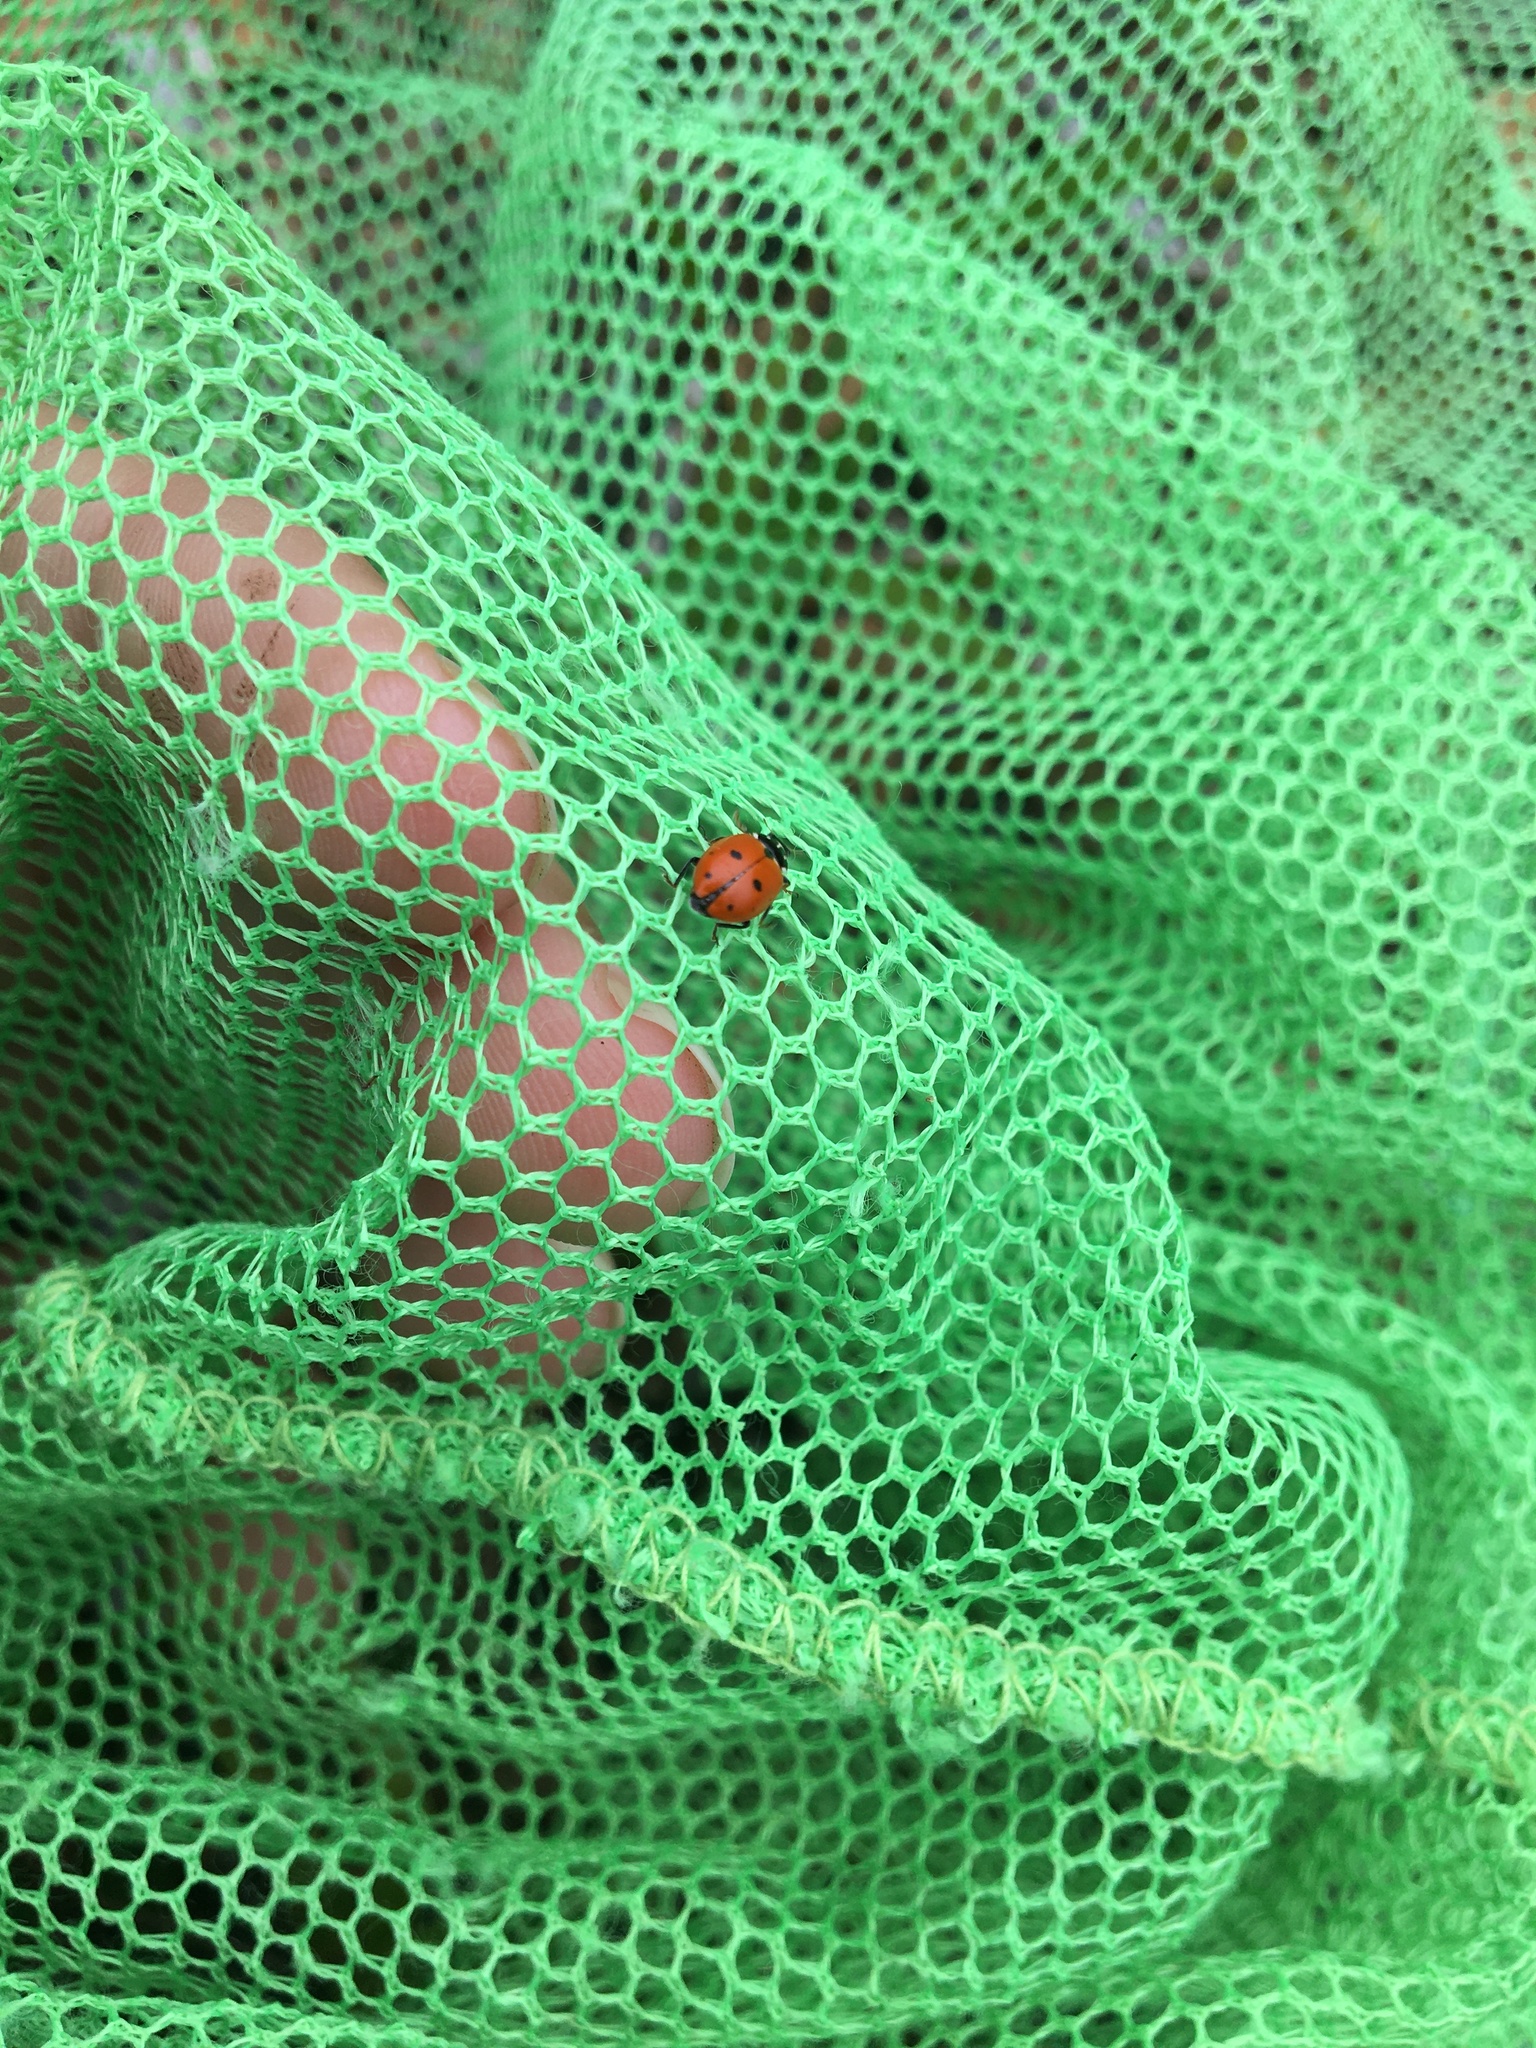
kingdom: Animalia
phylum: Arthropoda
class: Insecta
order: Coleoptera
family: Coccinellidae
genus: Hippodamia
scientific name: Hippodamia variegata
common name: Ladybird beetle
